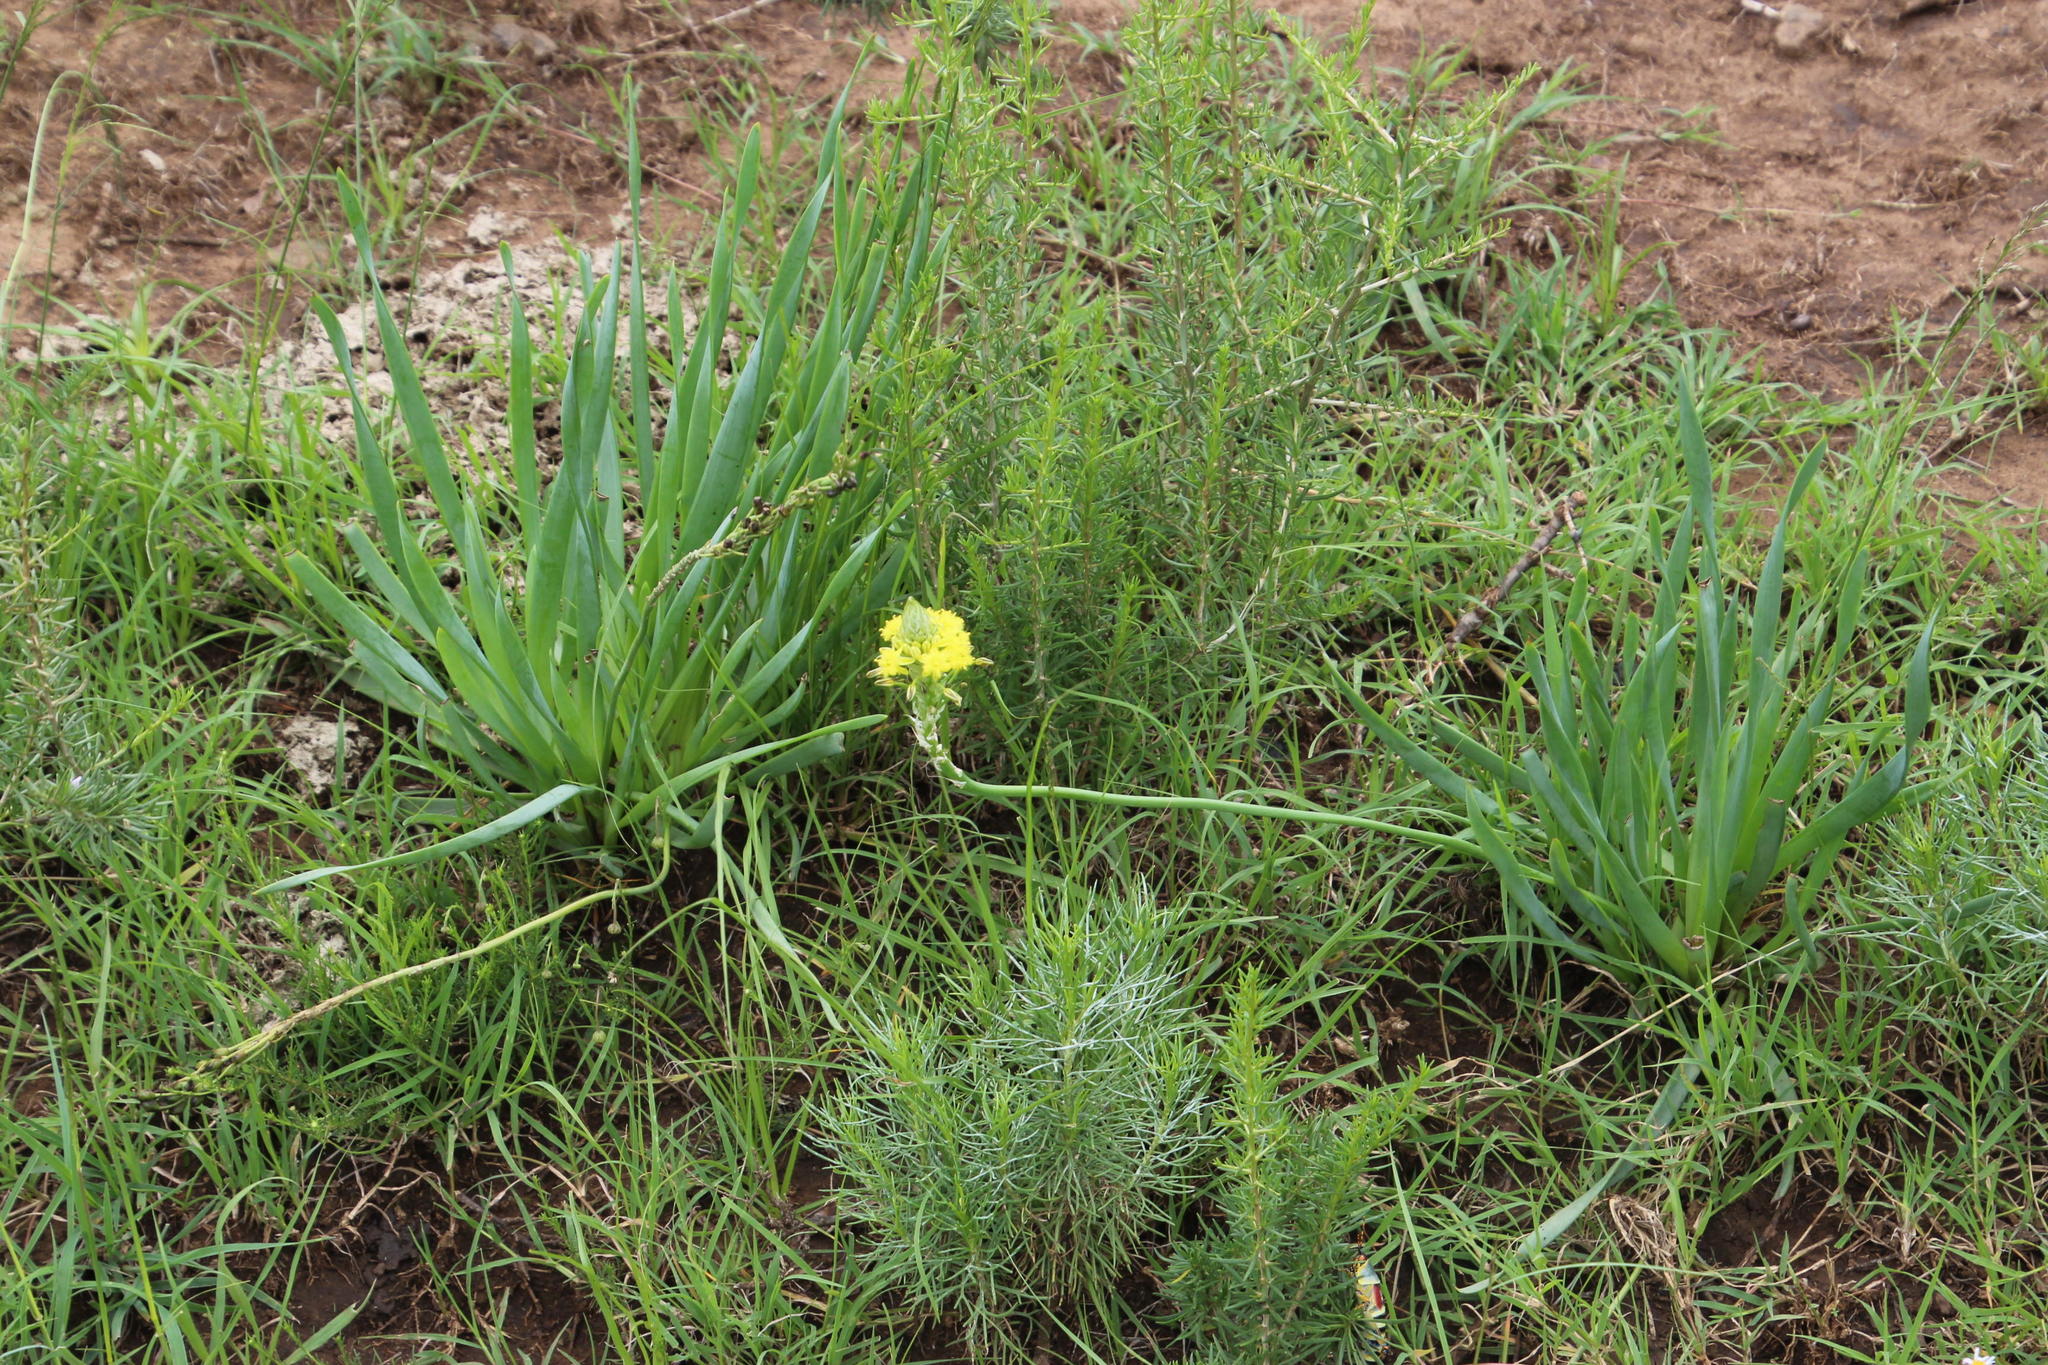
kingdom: Plantae
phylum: Tracheophyta
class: Liliopsida
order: Asparagales
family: Asphodelaceae
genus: Bulbine
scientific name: Bulbine narcissifolia
